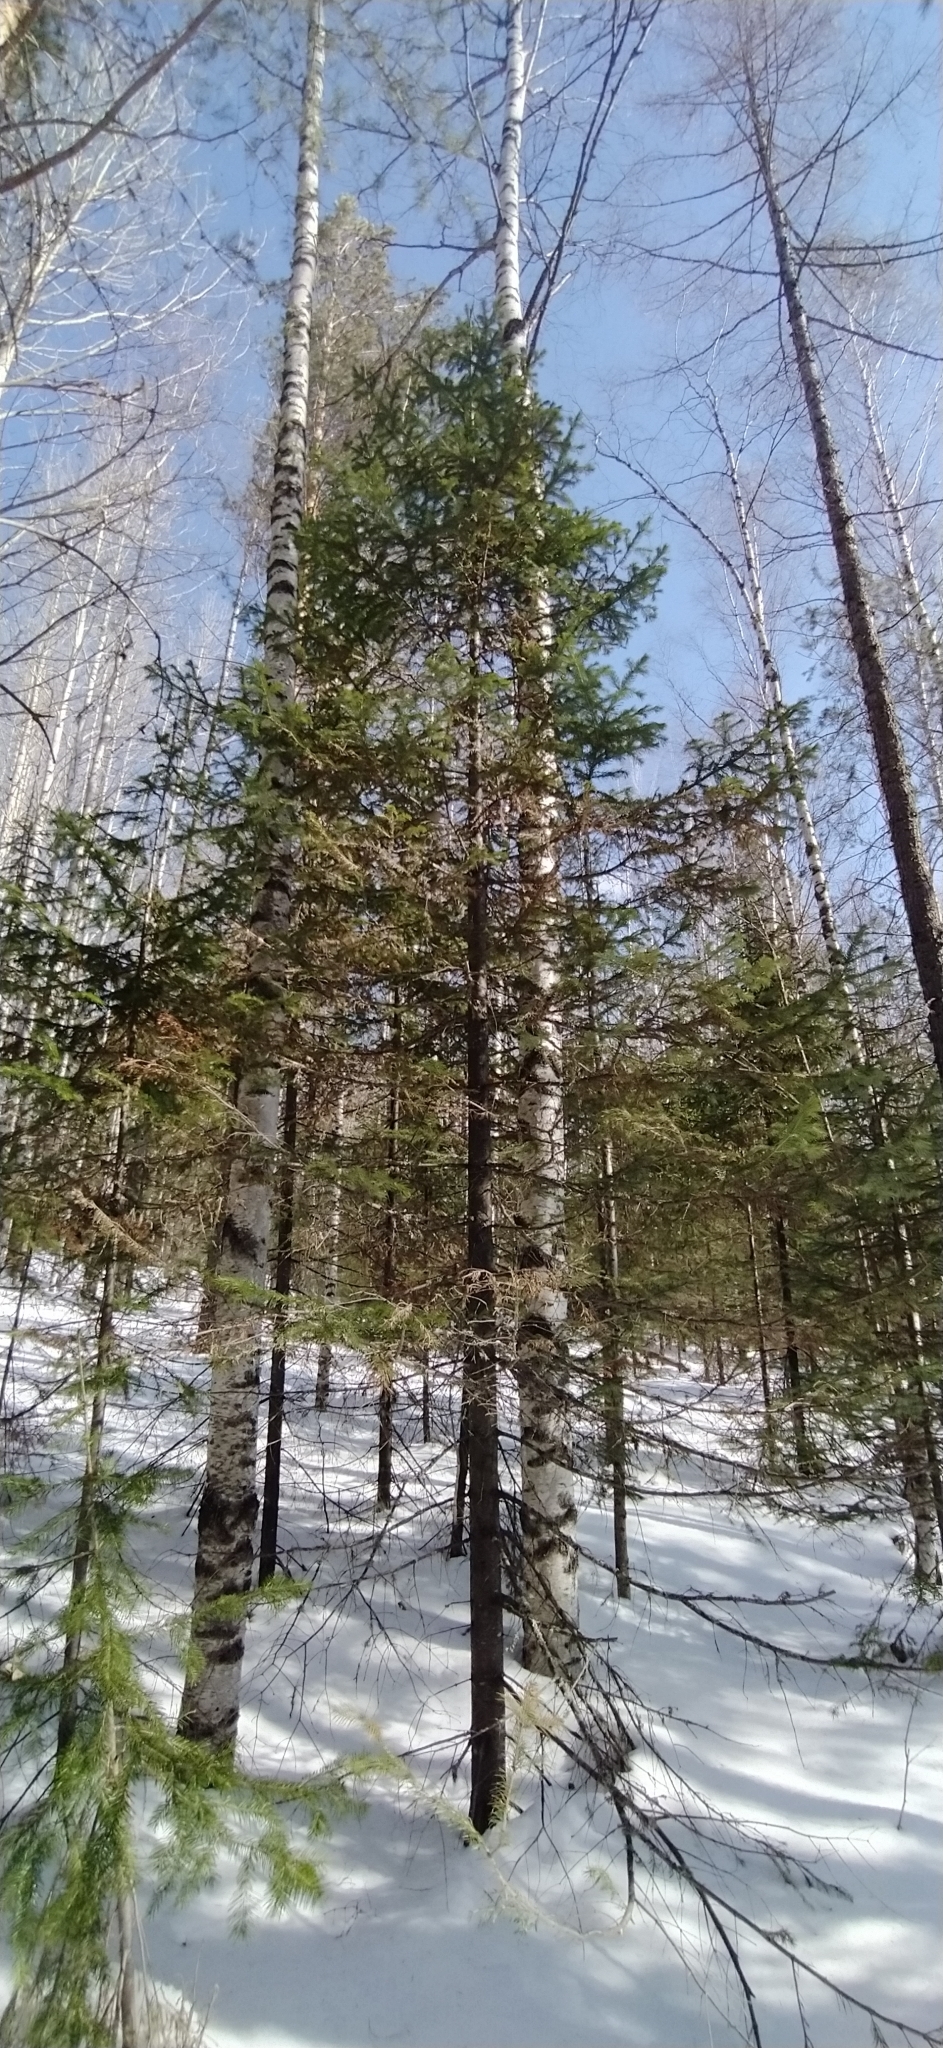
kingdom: Plantae
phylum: Tracheophyta
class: Pinopsida
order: Pinales
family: Pinaceae
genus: Abies
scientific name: Abies sibirica
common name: Siberian fir
